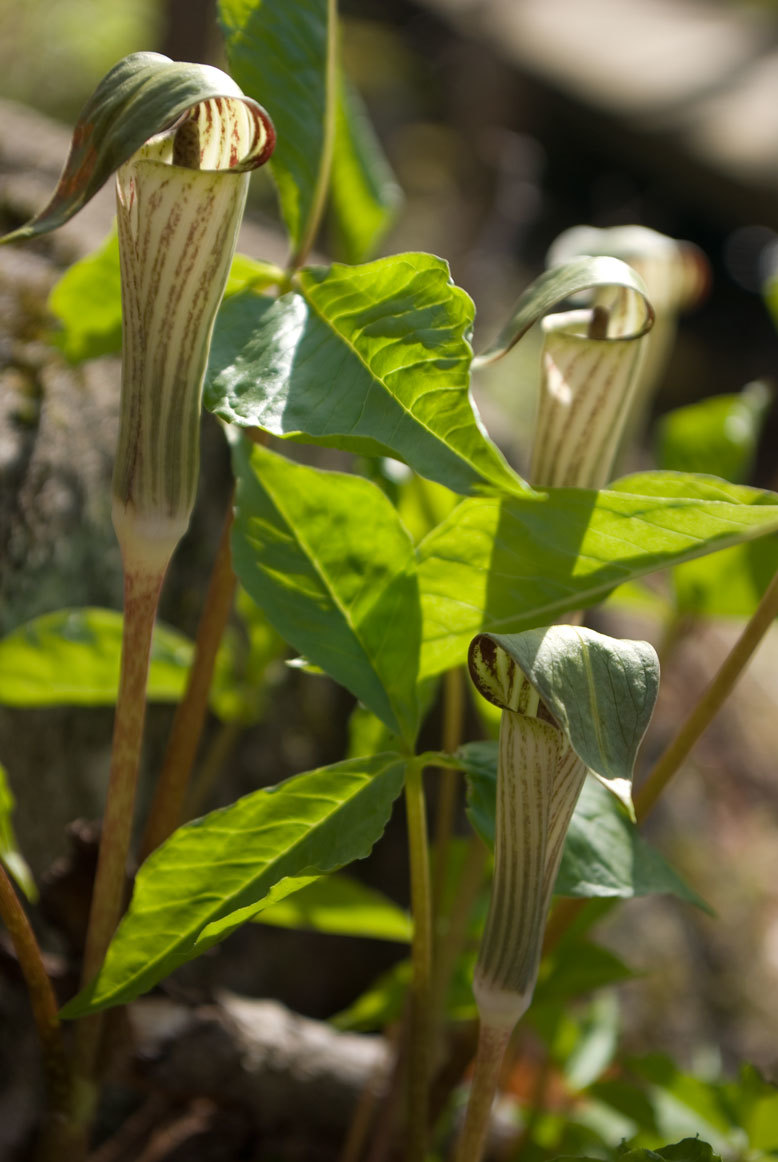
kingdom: Plantae
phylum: Tracheophyta
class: Liliopsida
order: Alismatales
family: Araceae
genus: Arisaema
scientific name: Arisaema triphyllum
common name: Jack-in-the-pulpit
